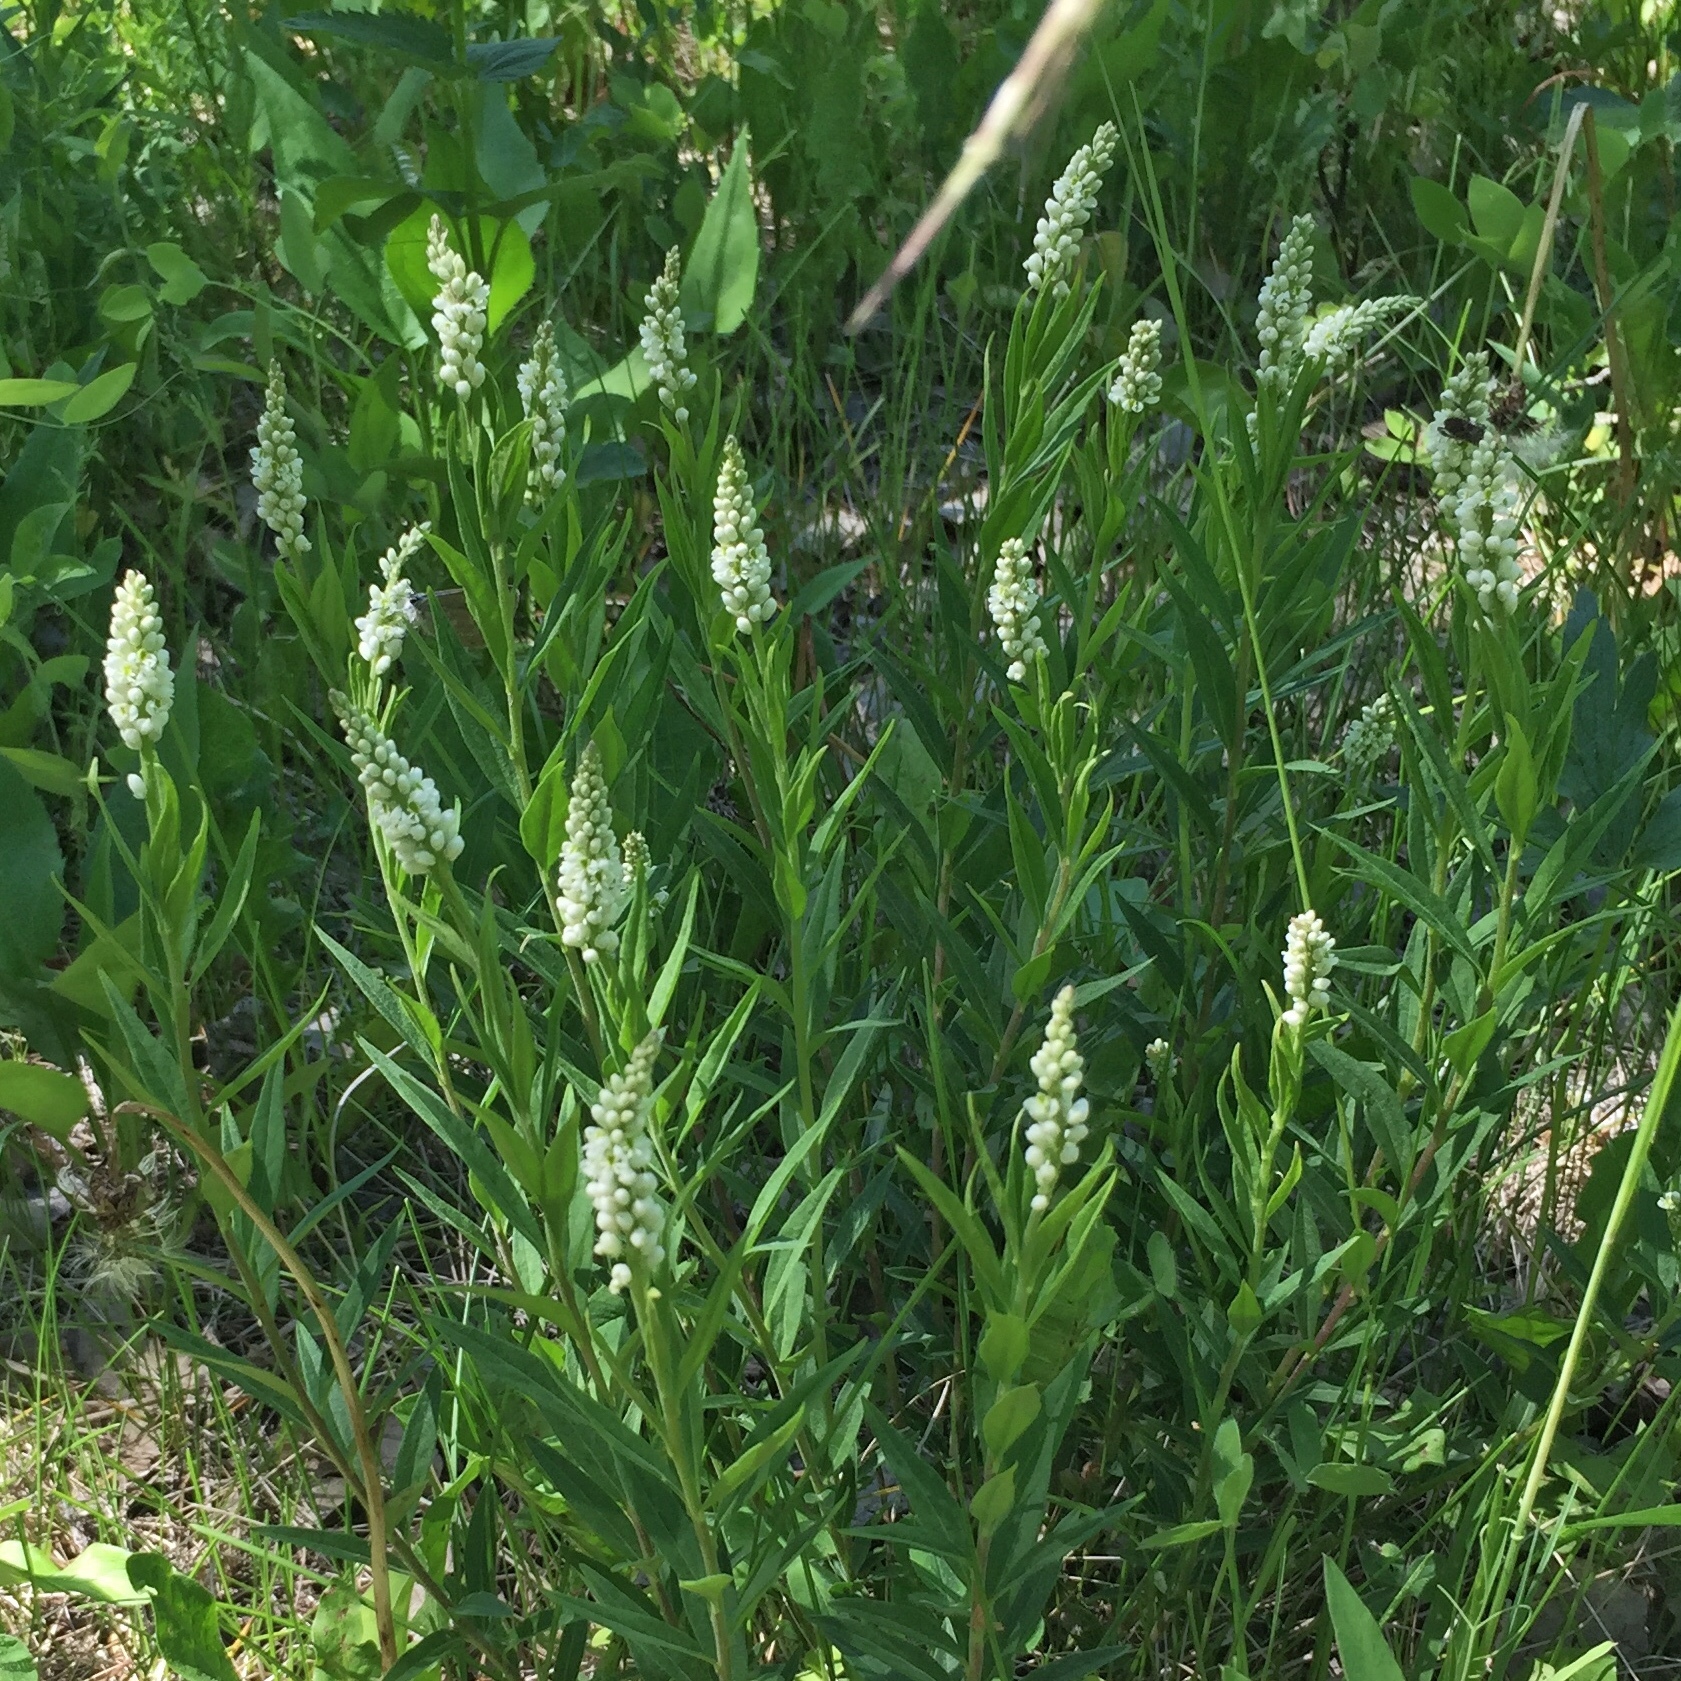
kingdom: Plantae
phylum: Tracheophyta
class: Magnoliopsida
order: Fabales
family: Polygalaceae
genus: Polygala
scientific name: Polygala senega
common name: Seneca snakeroot
